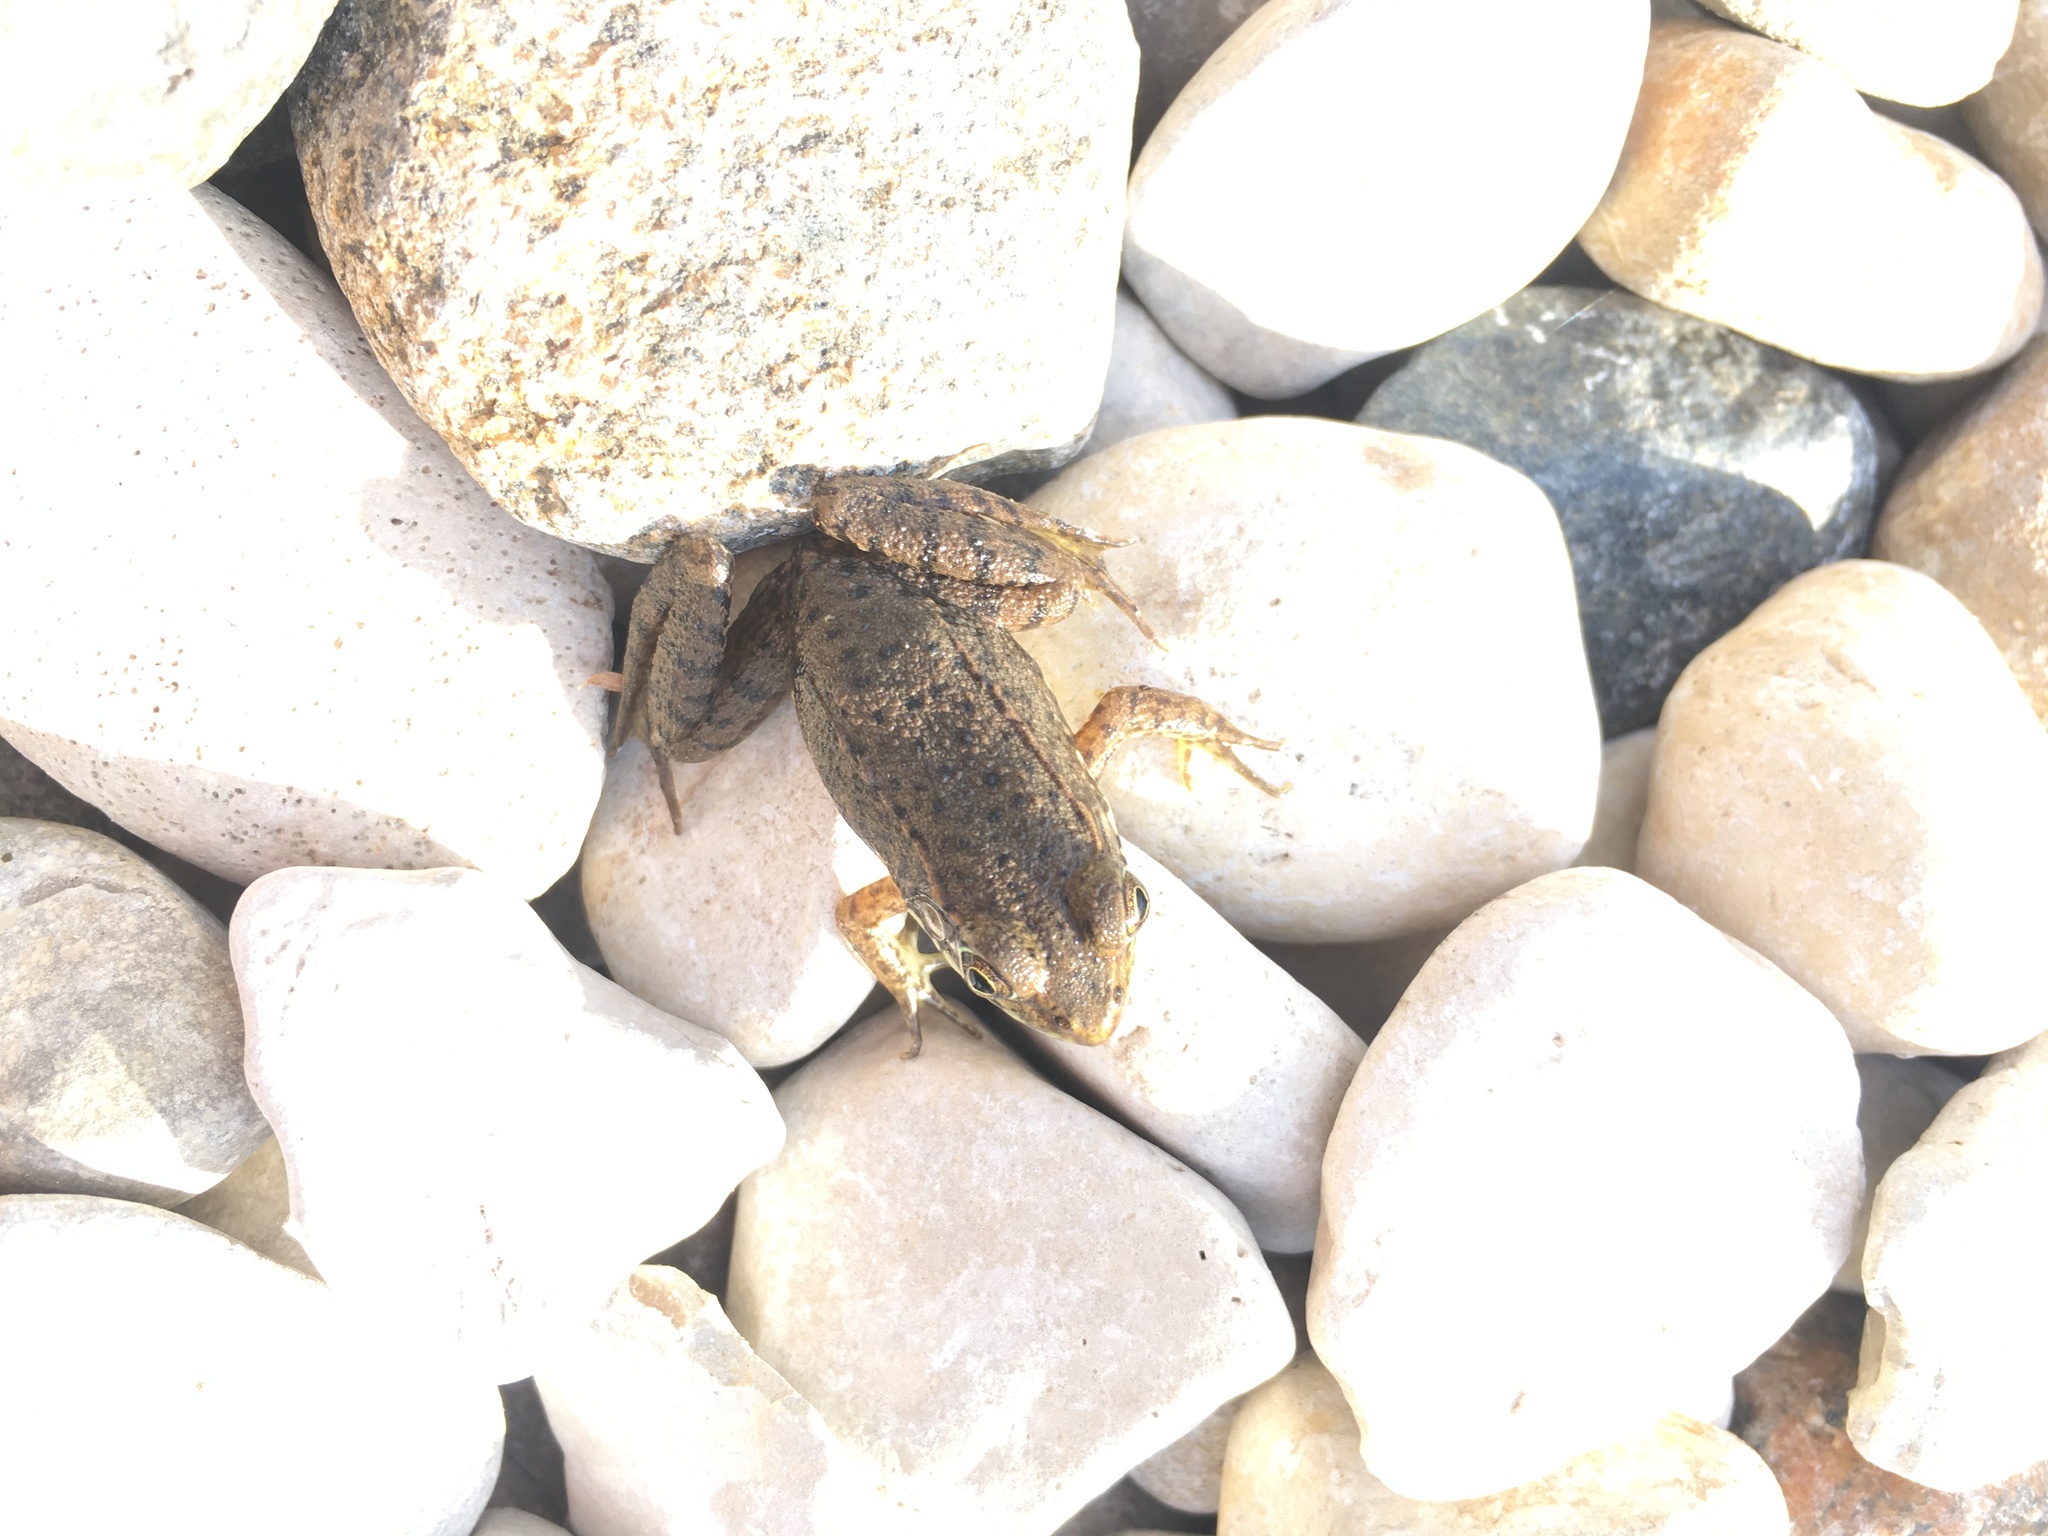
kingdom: Animalia
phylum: Chordata
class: Amphibia
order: Anura
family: Ranidae
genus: Lithobates
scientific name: Lithobates clamitans
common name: Green frog
